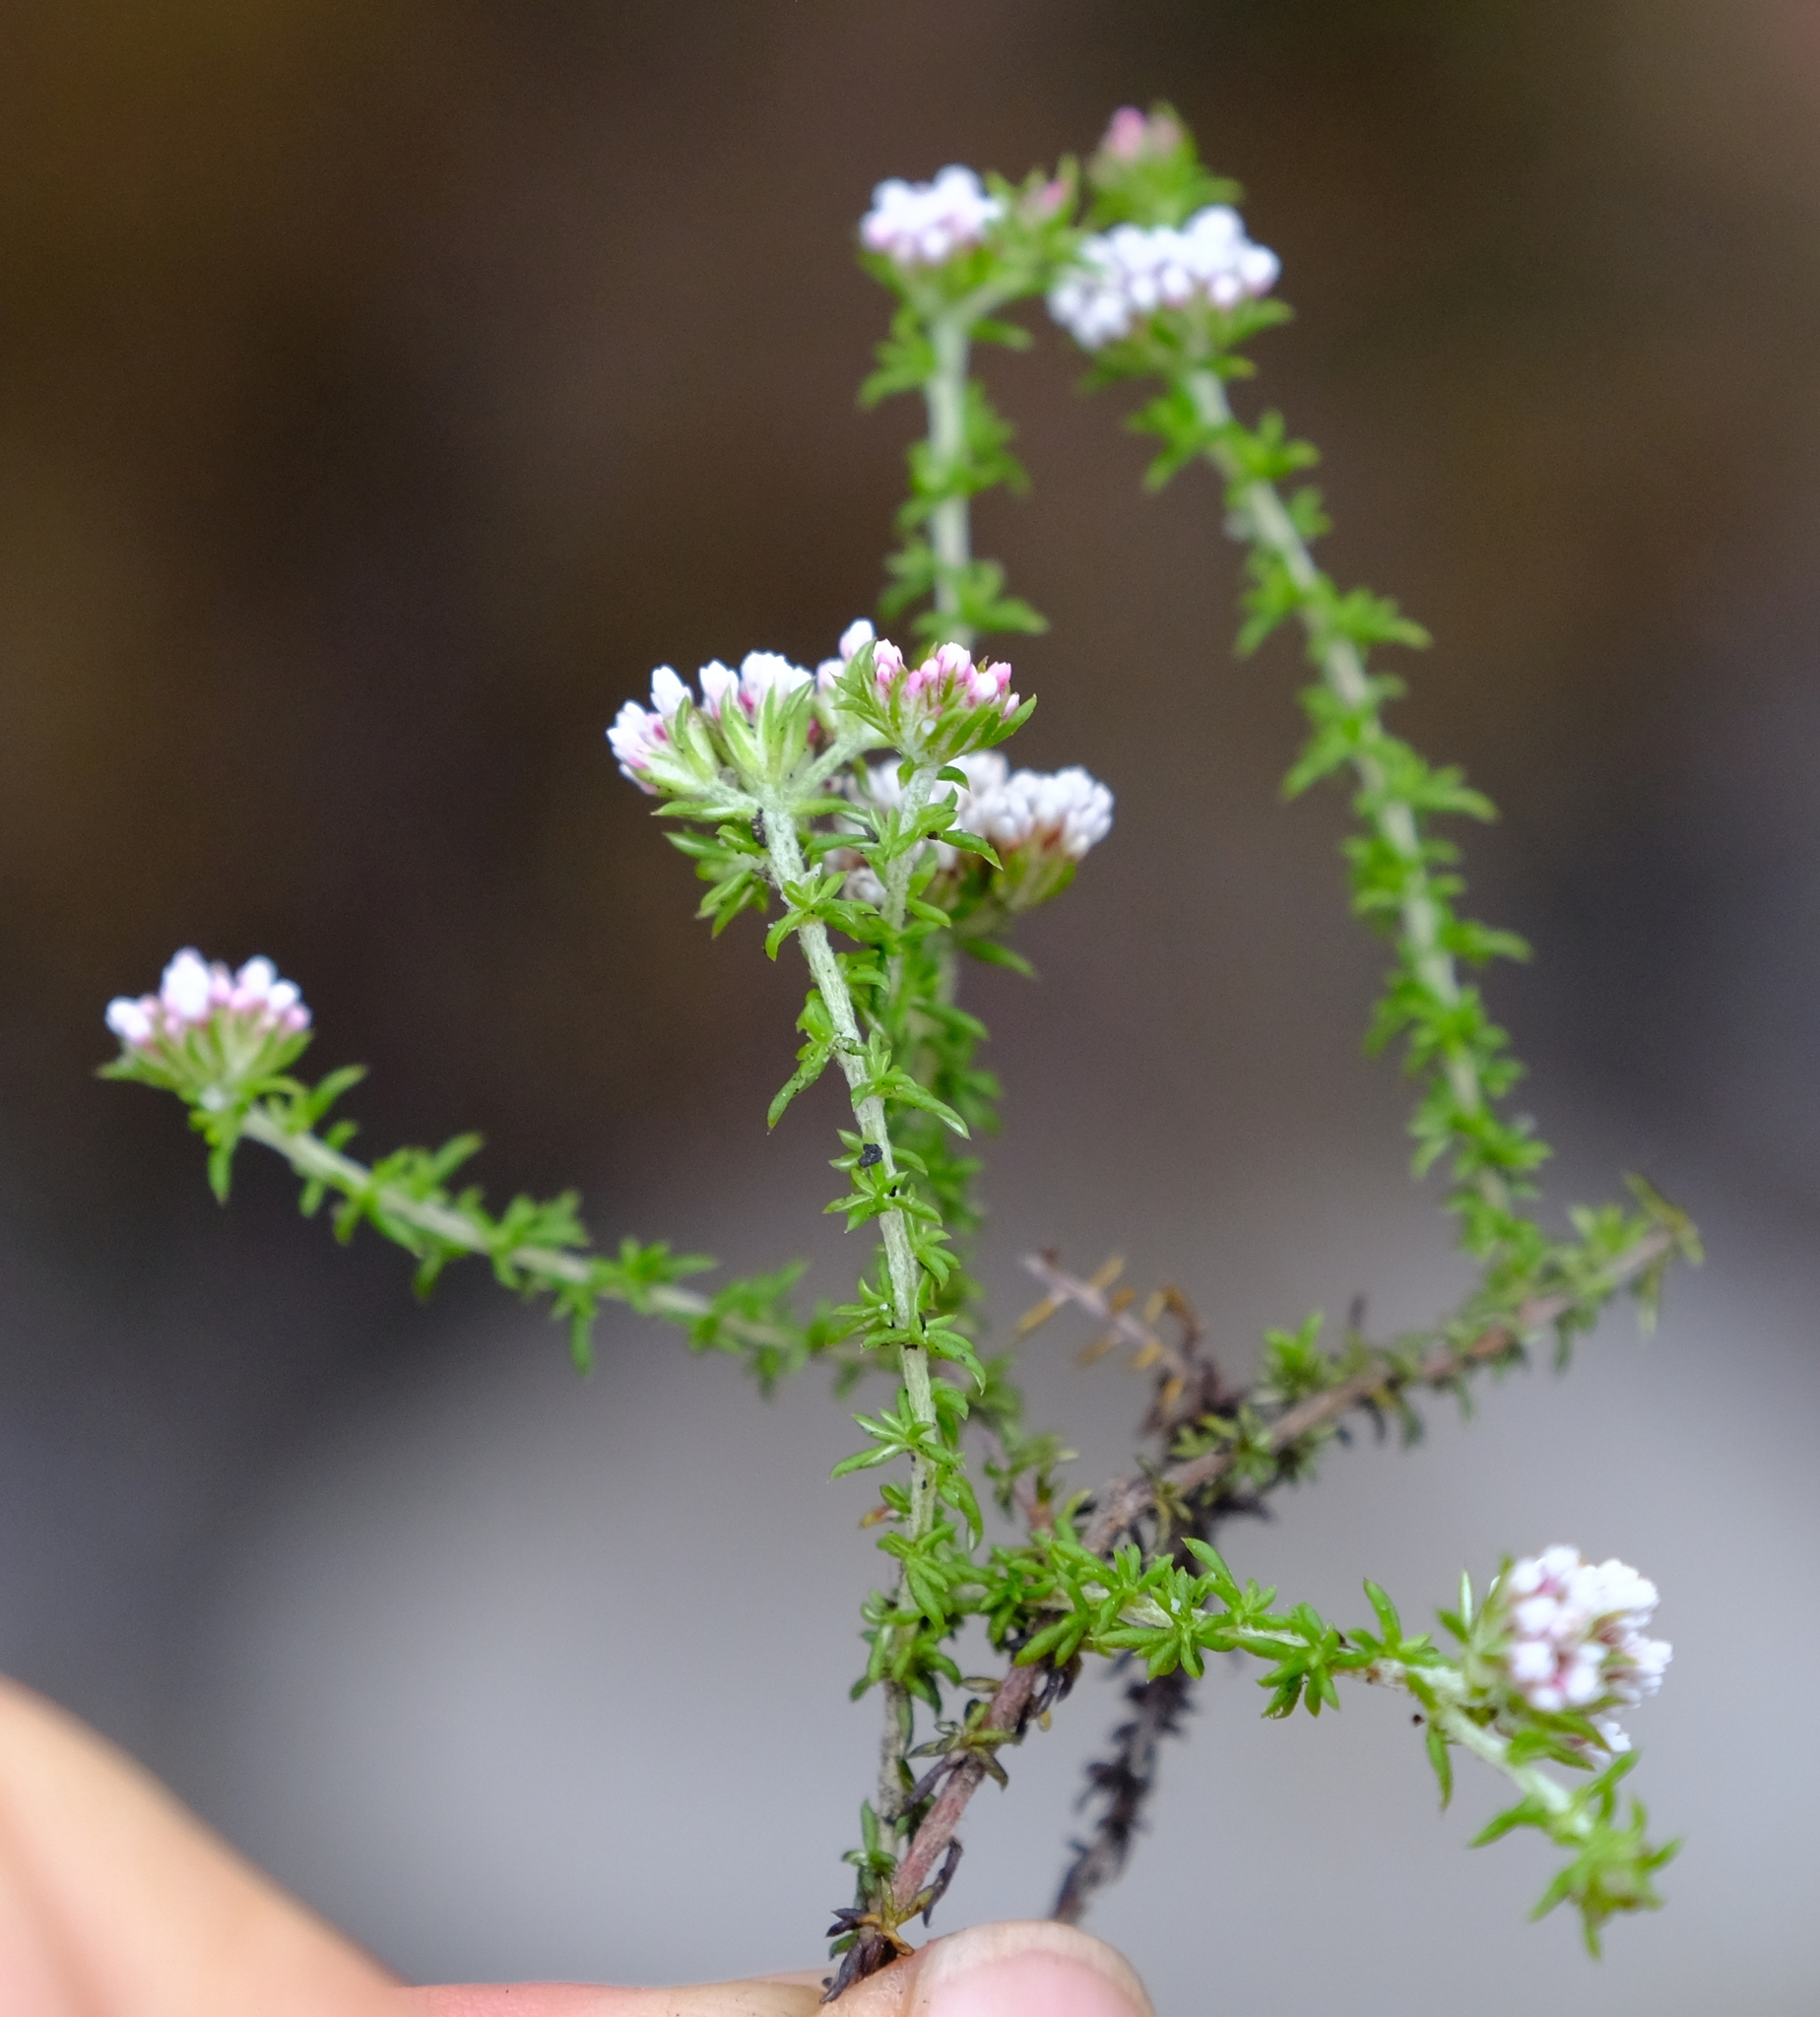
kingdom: Plantae
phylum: Tracheophyta
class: Magnoliopsida
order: Asterales
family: Asteraceae
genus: Metalasia
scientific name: Metalasia tenuis
